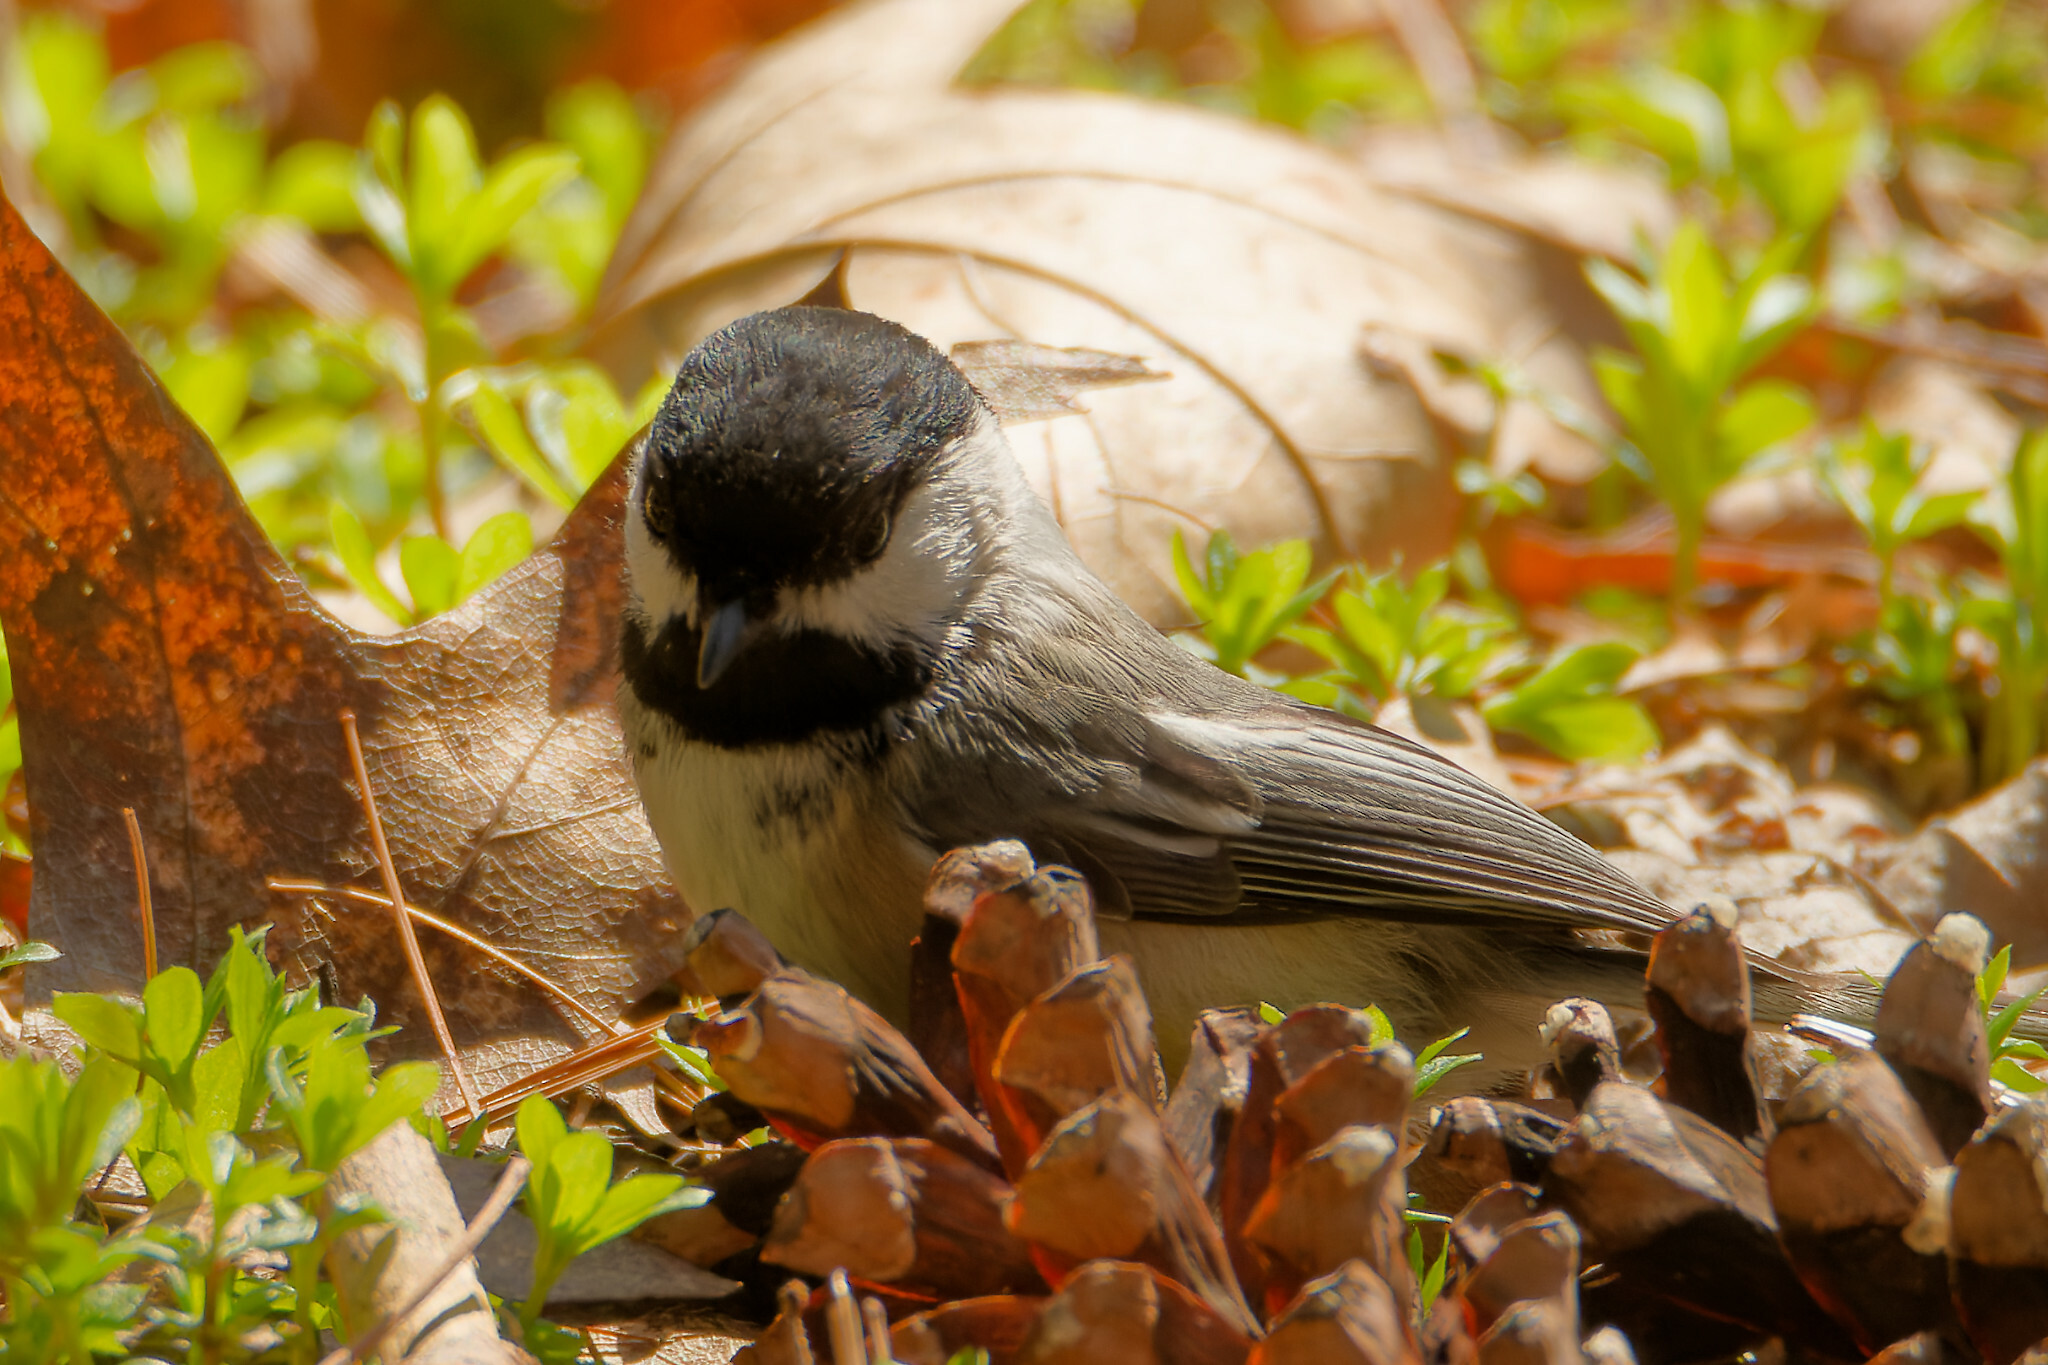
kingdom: Animalia
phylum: Chordata
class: Aves
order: Passeriformes
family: Paridae
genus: Poecile
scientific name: Poecile atricapillus
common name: Black-capped chickadee
